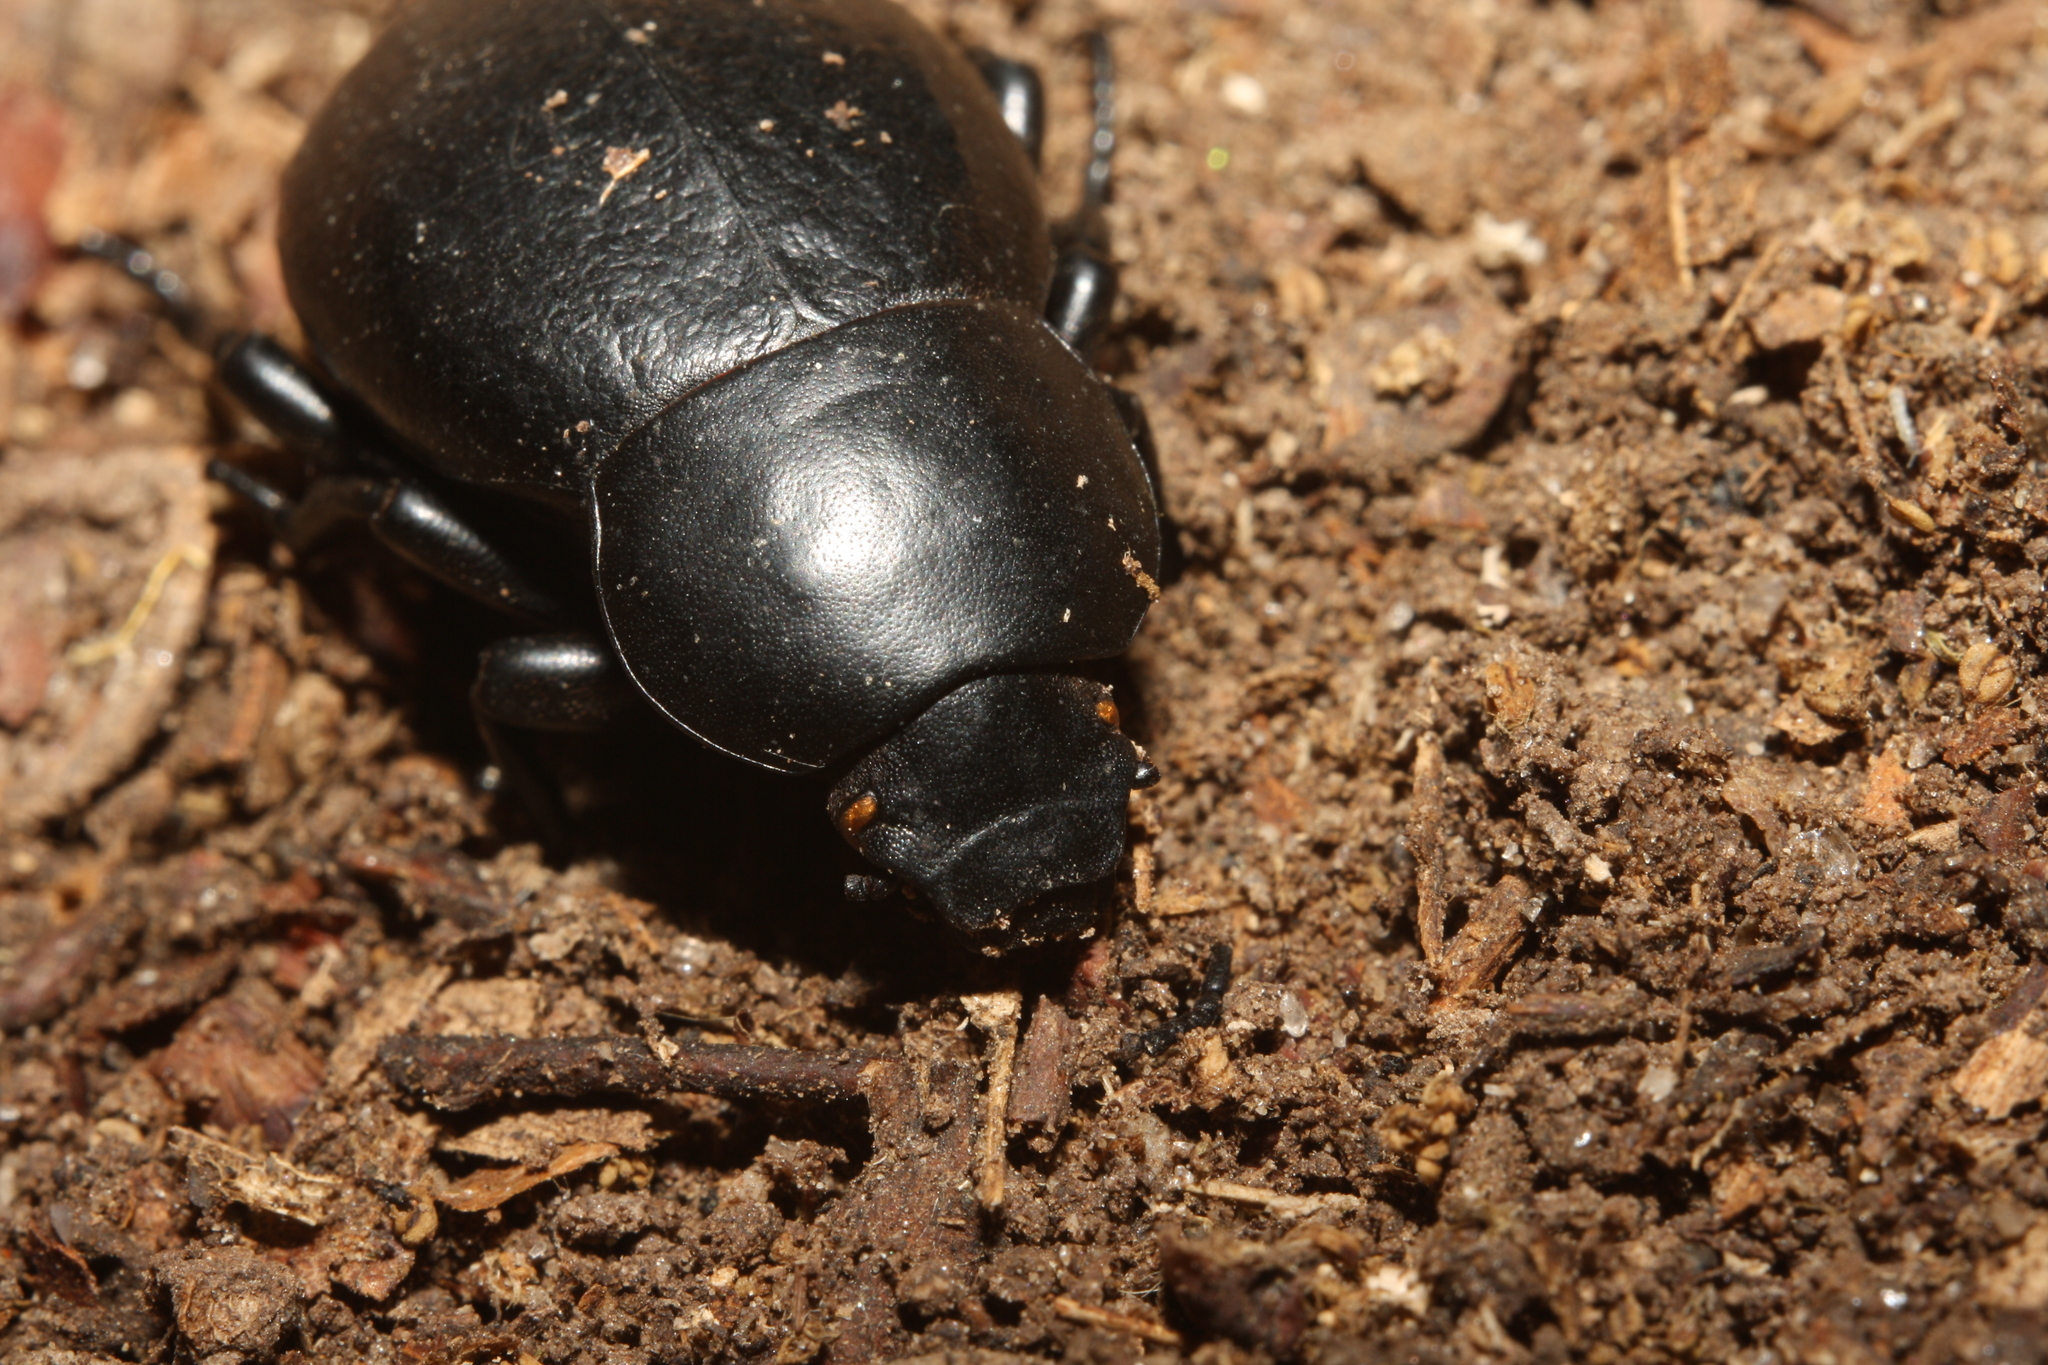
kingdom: Animalia
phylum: Arthropoda
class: Insecta
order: Coleoptera
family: Tenebrionidae
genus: Gnaptor
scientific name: Gnaptor spinimanus
